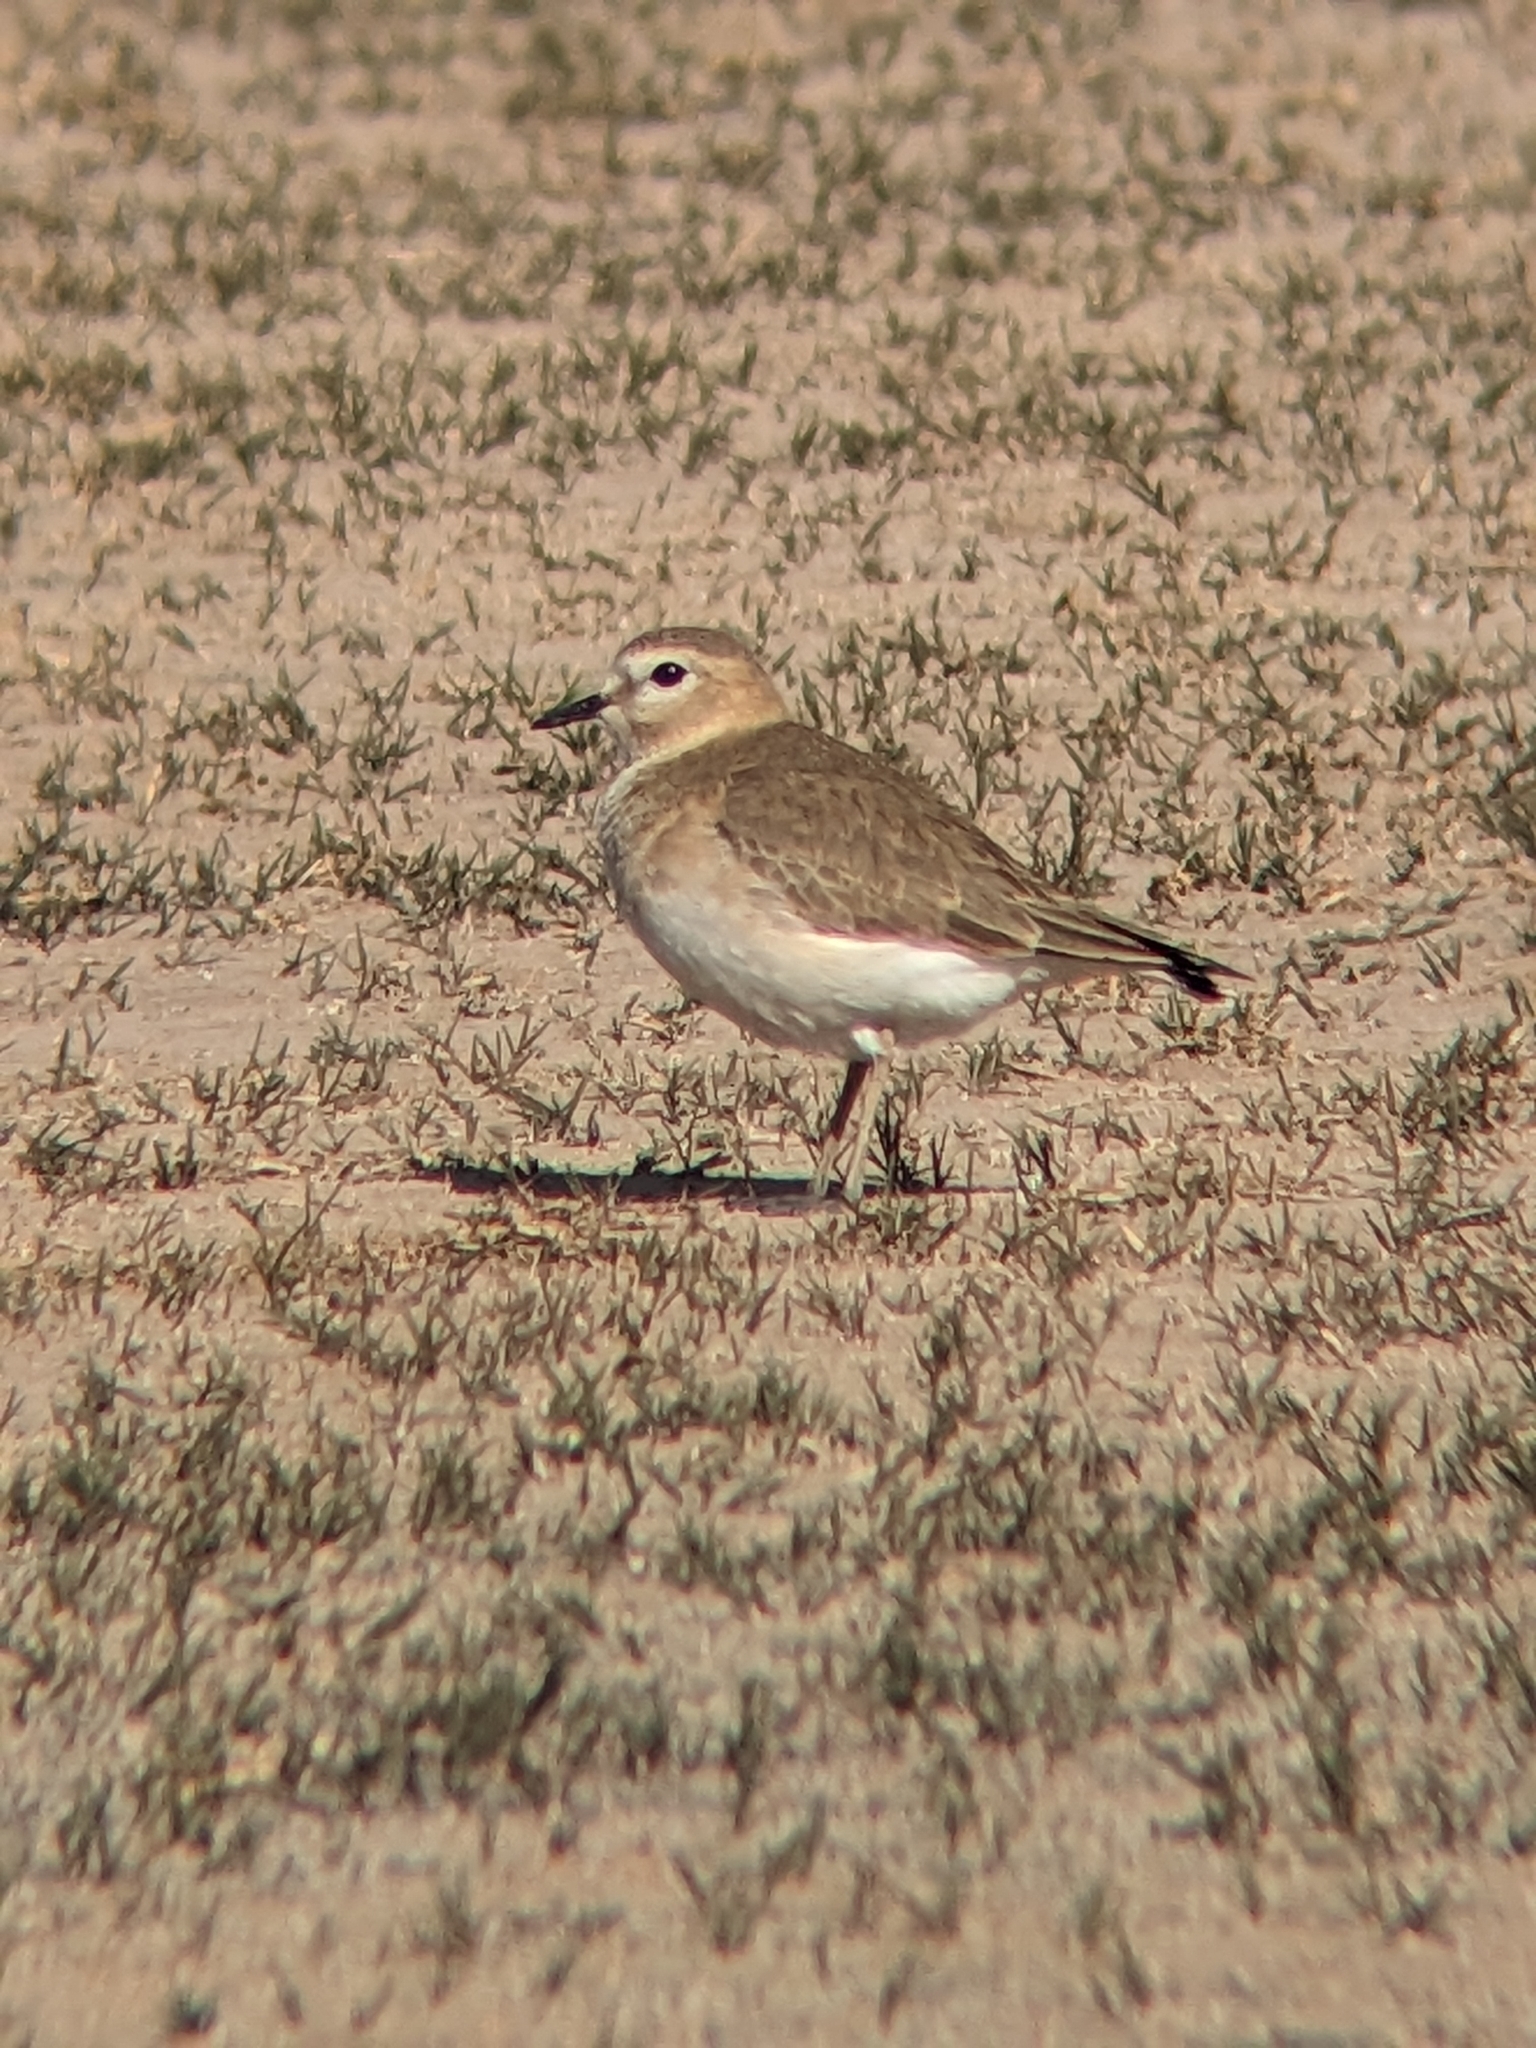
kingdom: Animalia
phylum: Chordata
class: Aves
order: Charadriiformes
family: Charadriidae
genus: Anarhynchus
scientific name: Anarhynchus
